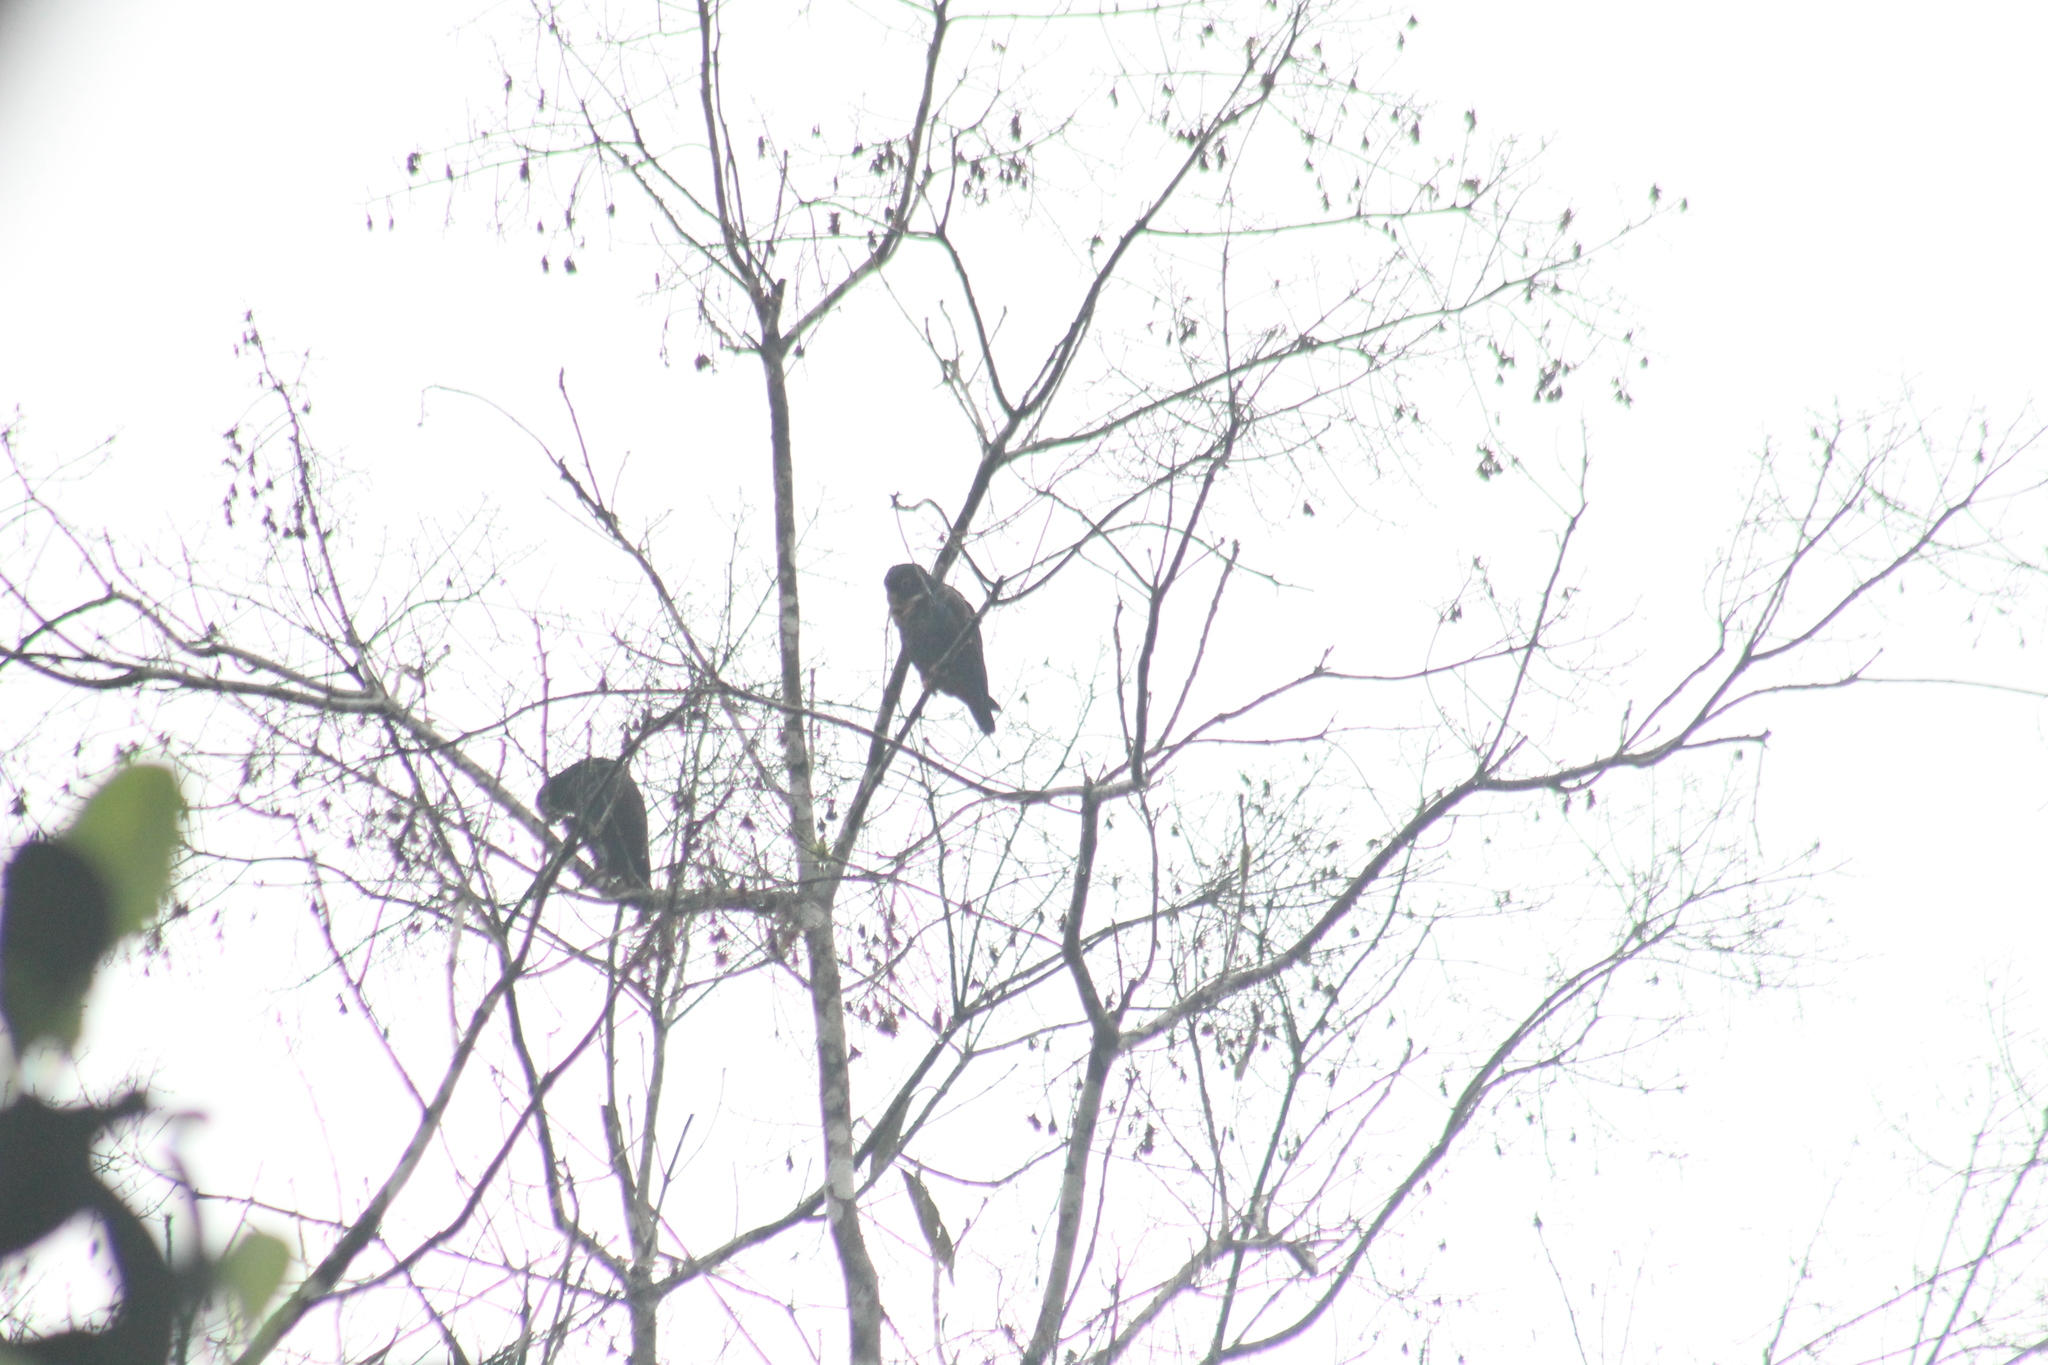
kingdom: Animalia
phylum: Chordata
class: Aves
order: Psittaciformes
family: Psittacidae
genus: Pionus
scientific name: Pionus chalcopterus
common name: Bronze-winged parrot
